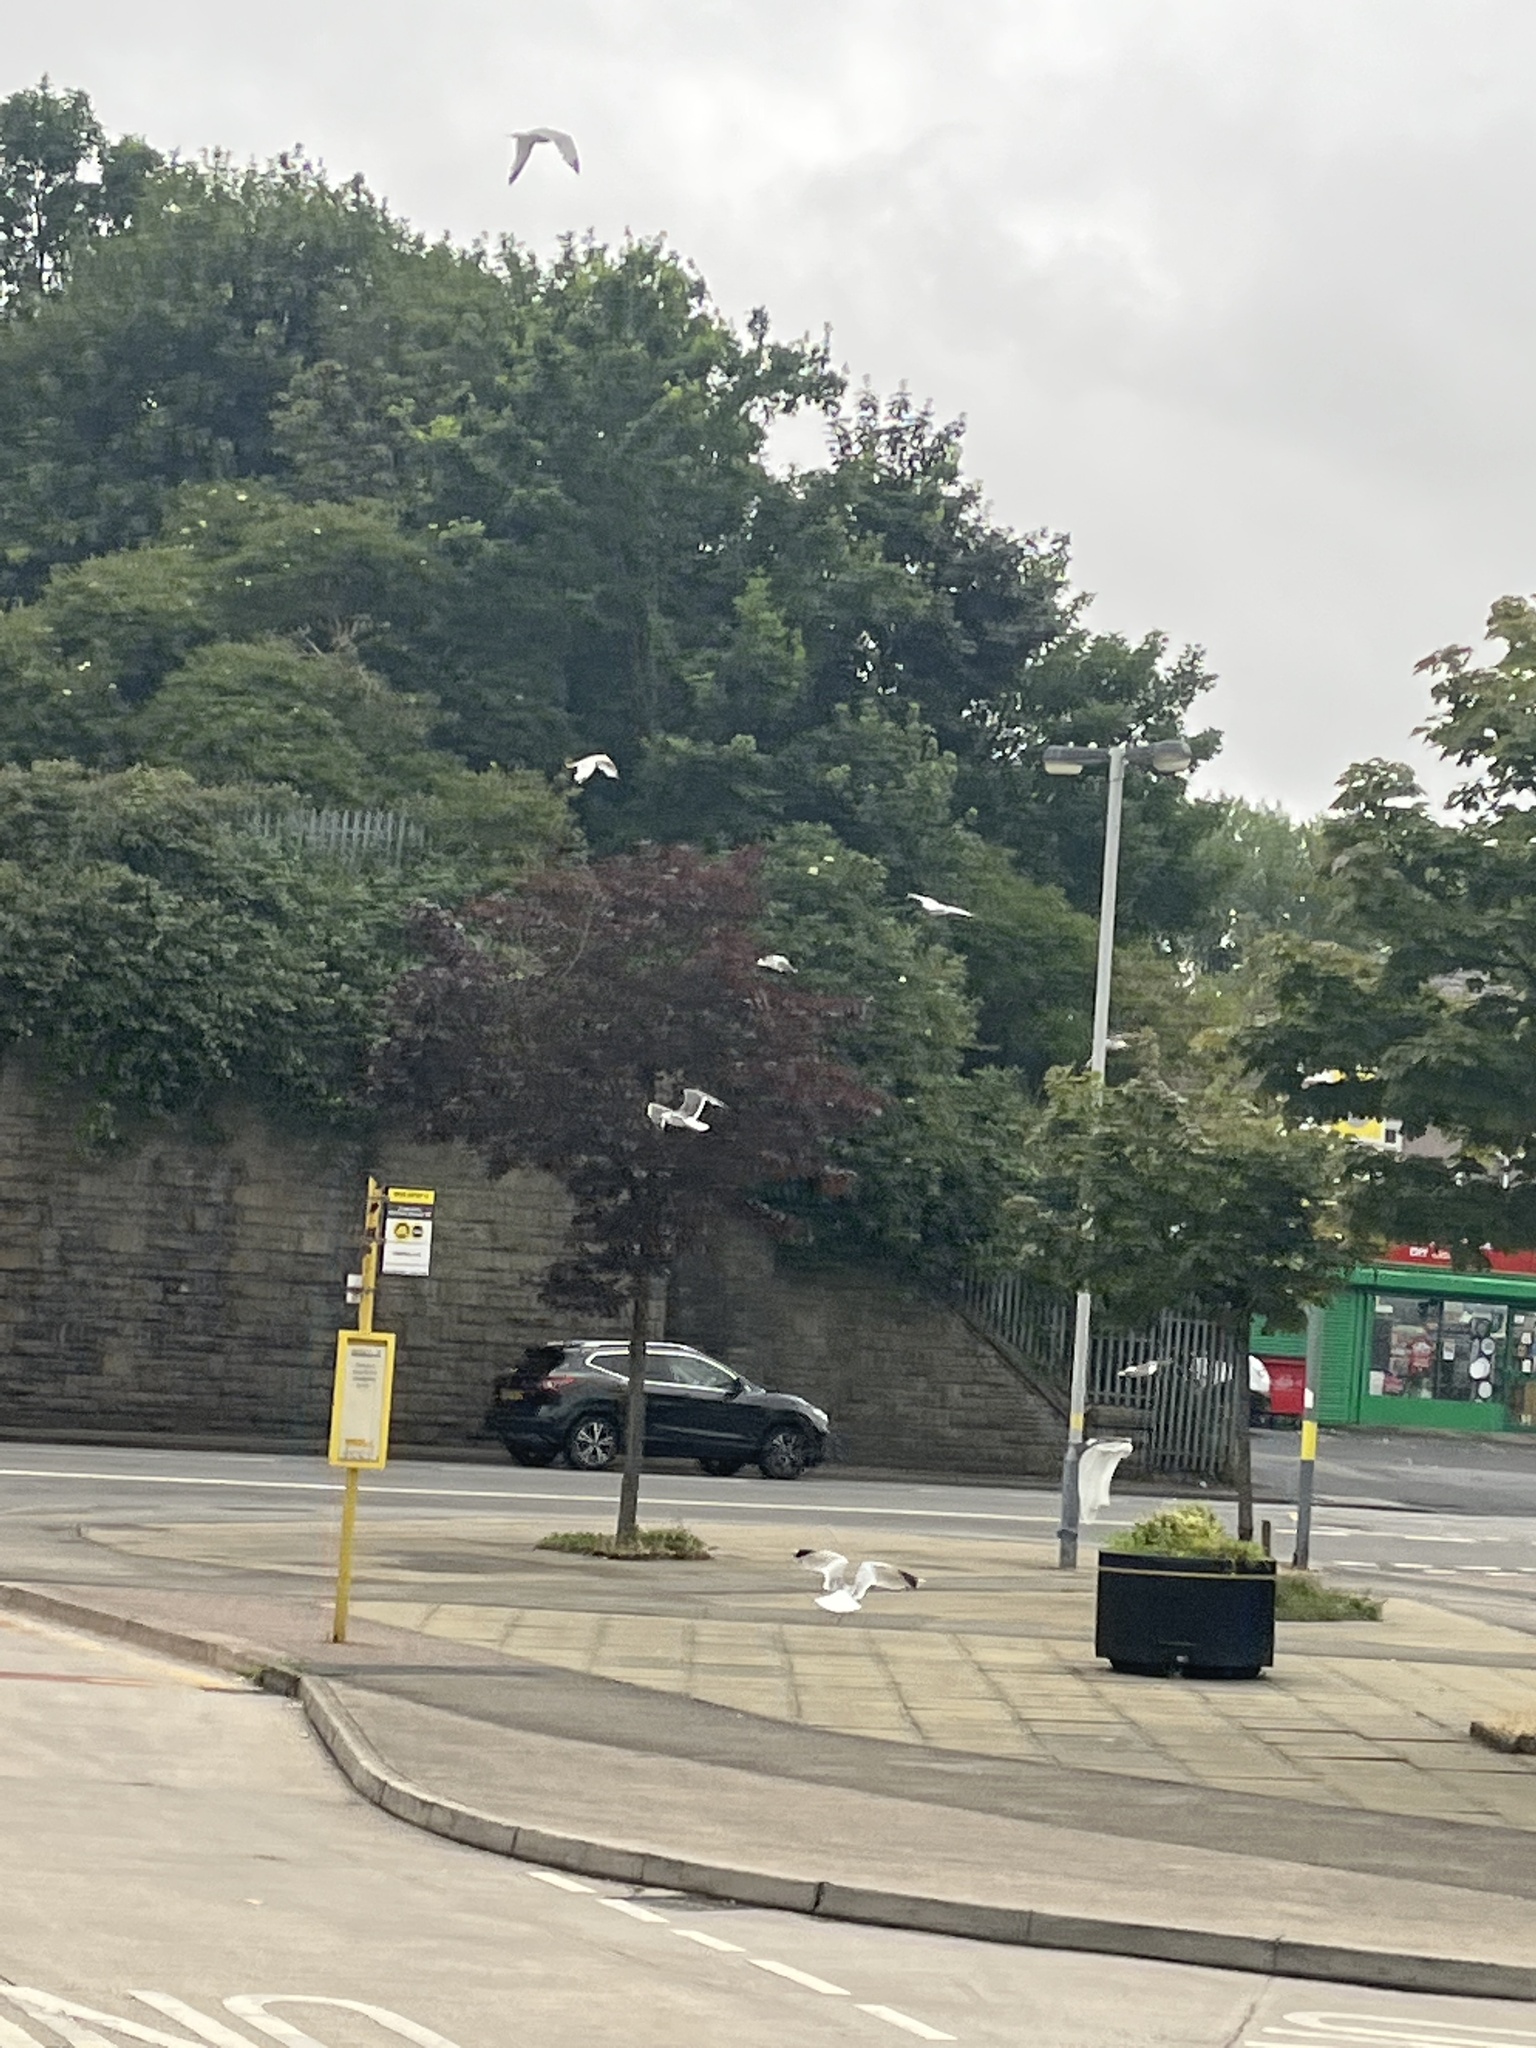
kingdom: Animalia
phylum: Chordata
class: Aves
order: Charadriiformes
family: Laridae
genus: Larus
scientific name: Larus fuscus
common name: Lesser black-backed gull
